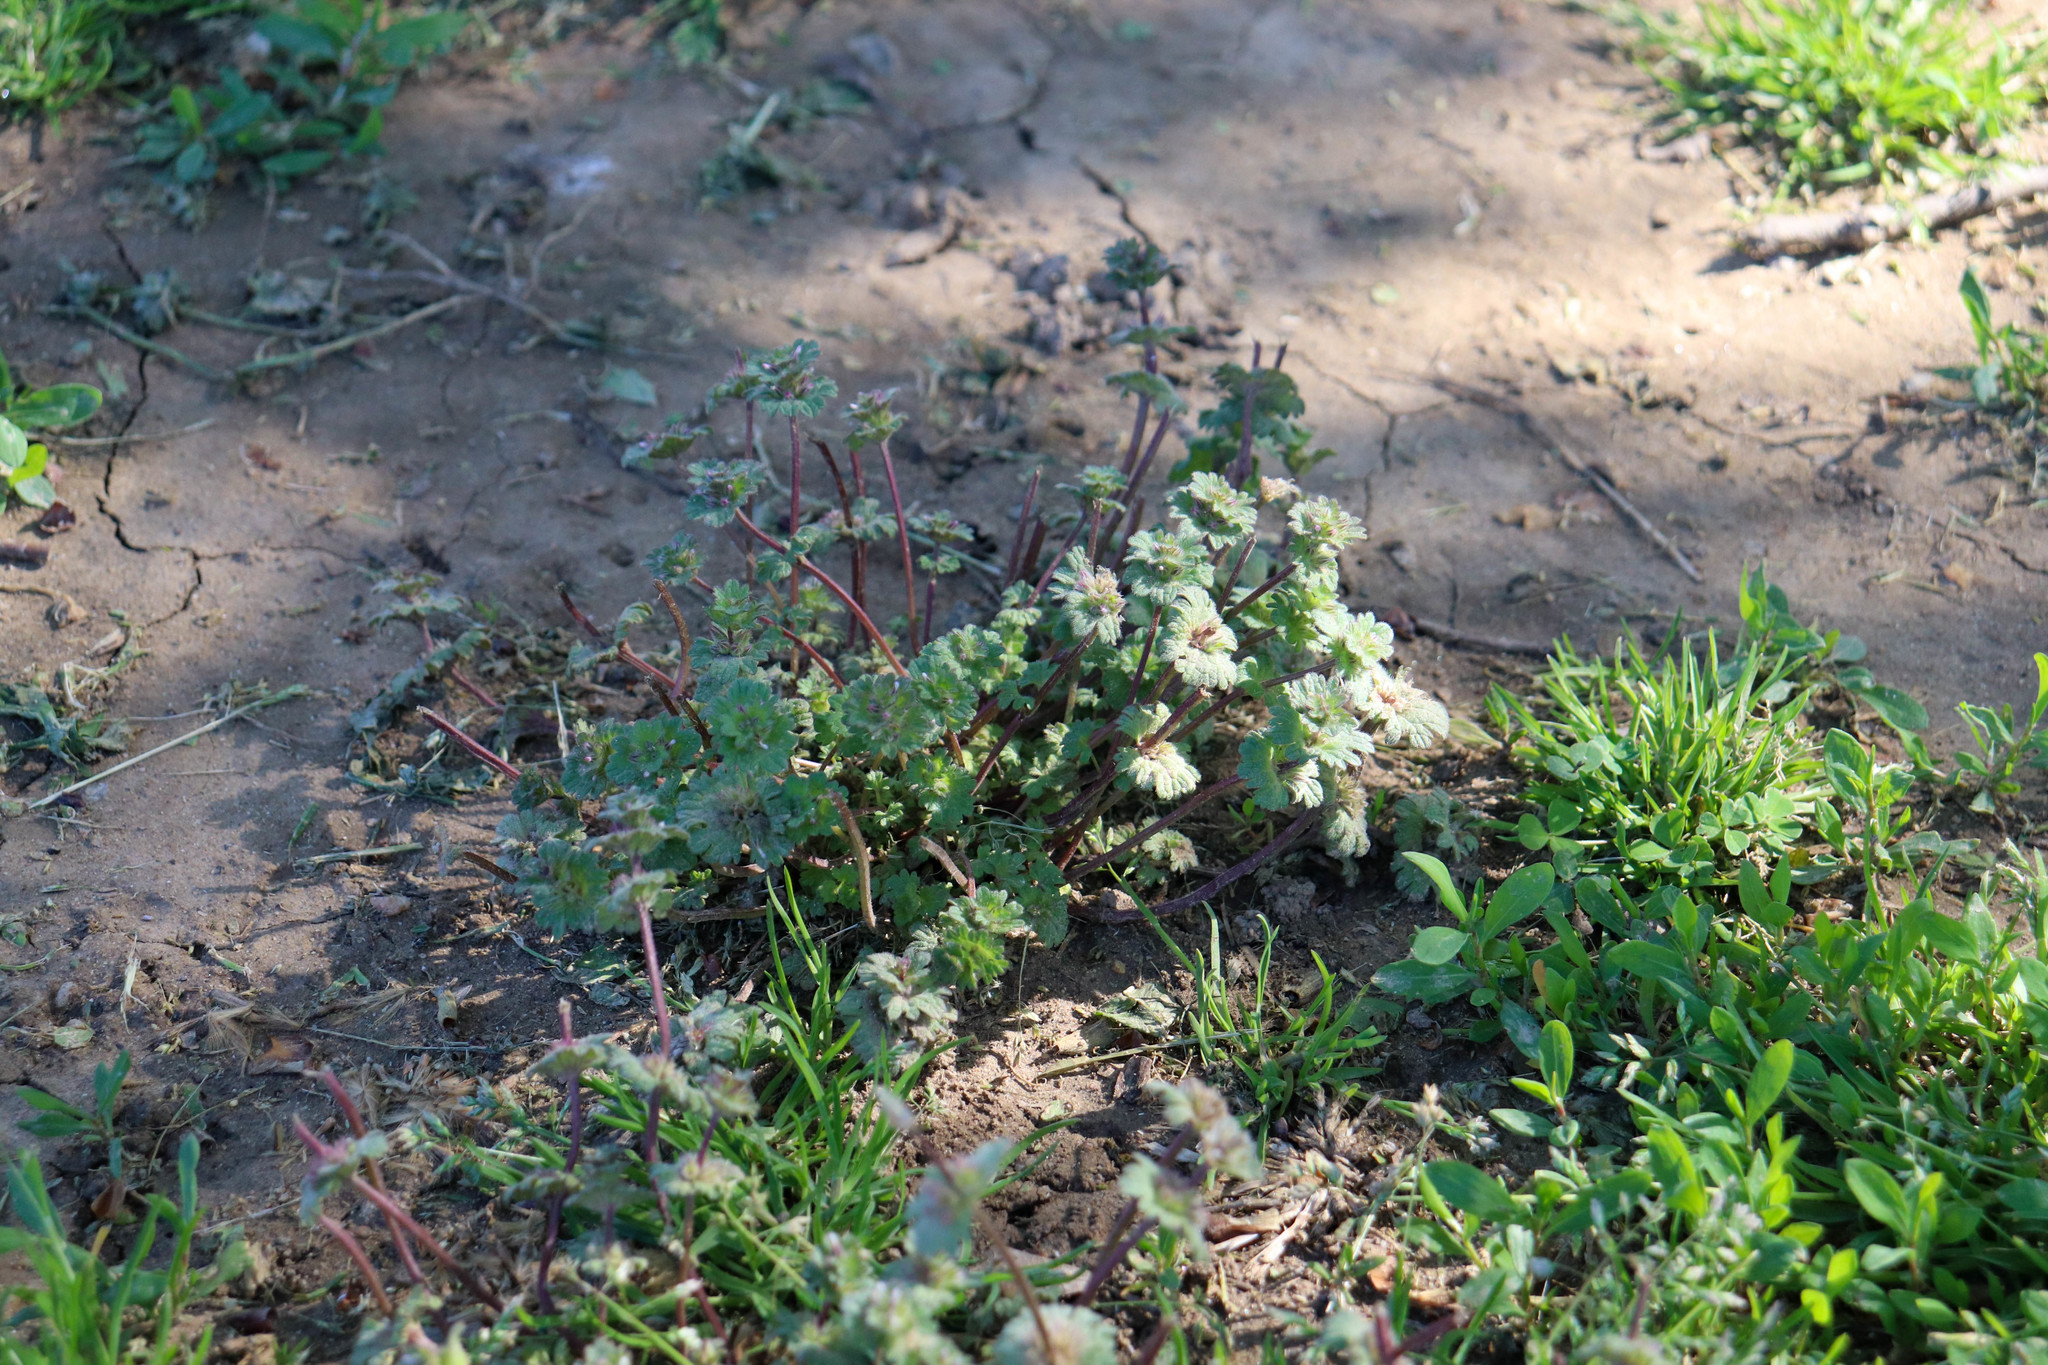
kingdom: Plantae
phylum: Tracheophyta
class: Magnoliopsida
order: Lamiales
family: Lamiaceae
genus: Lamium
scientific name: Lamium amplexicaule
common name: Henbit dead-nettle
